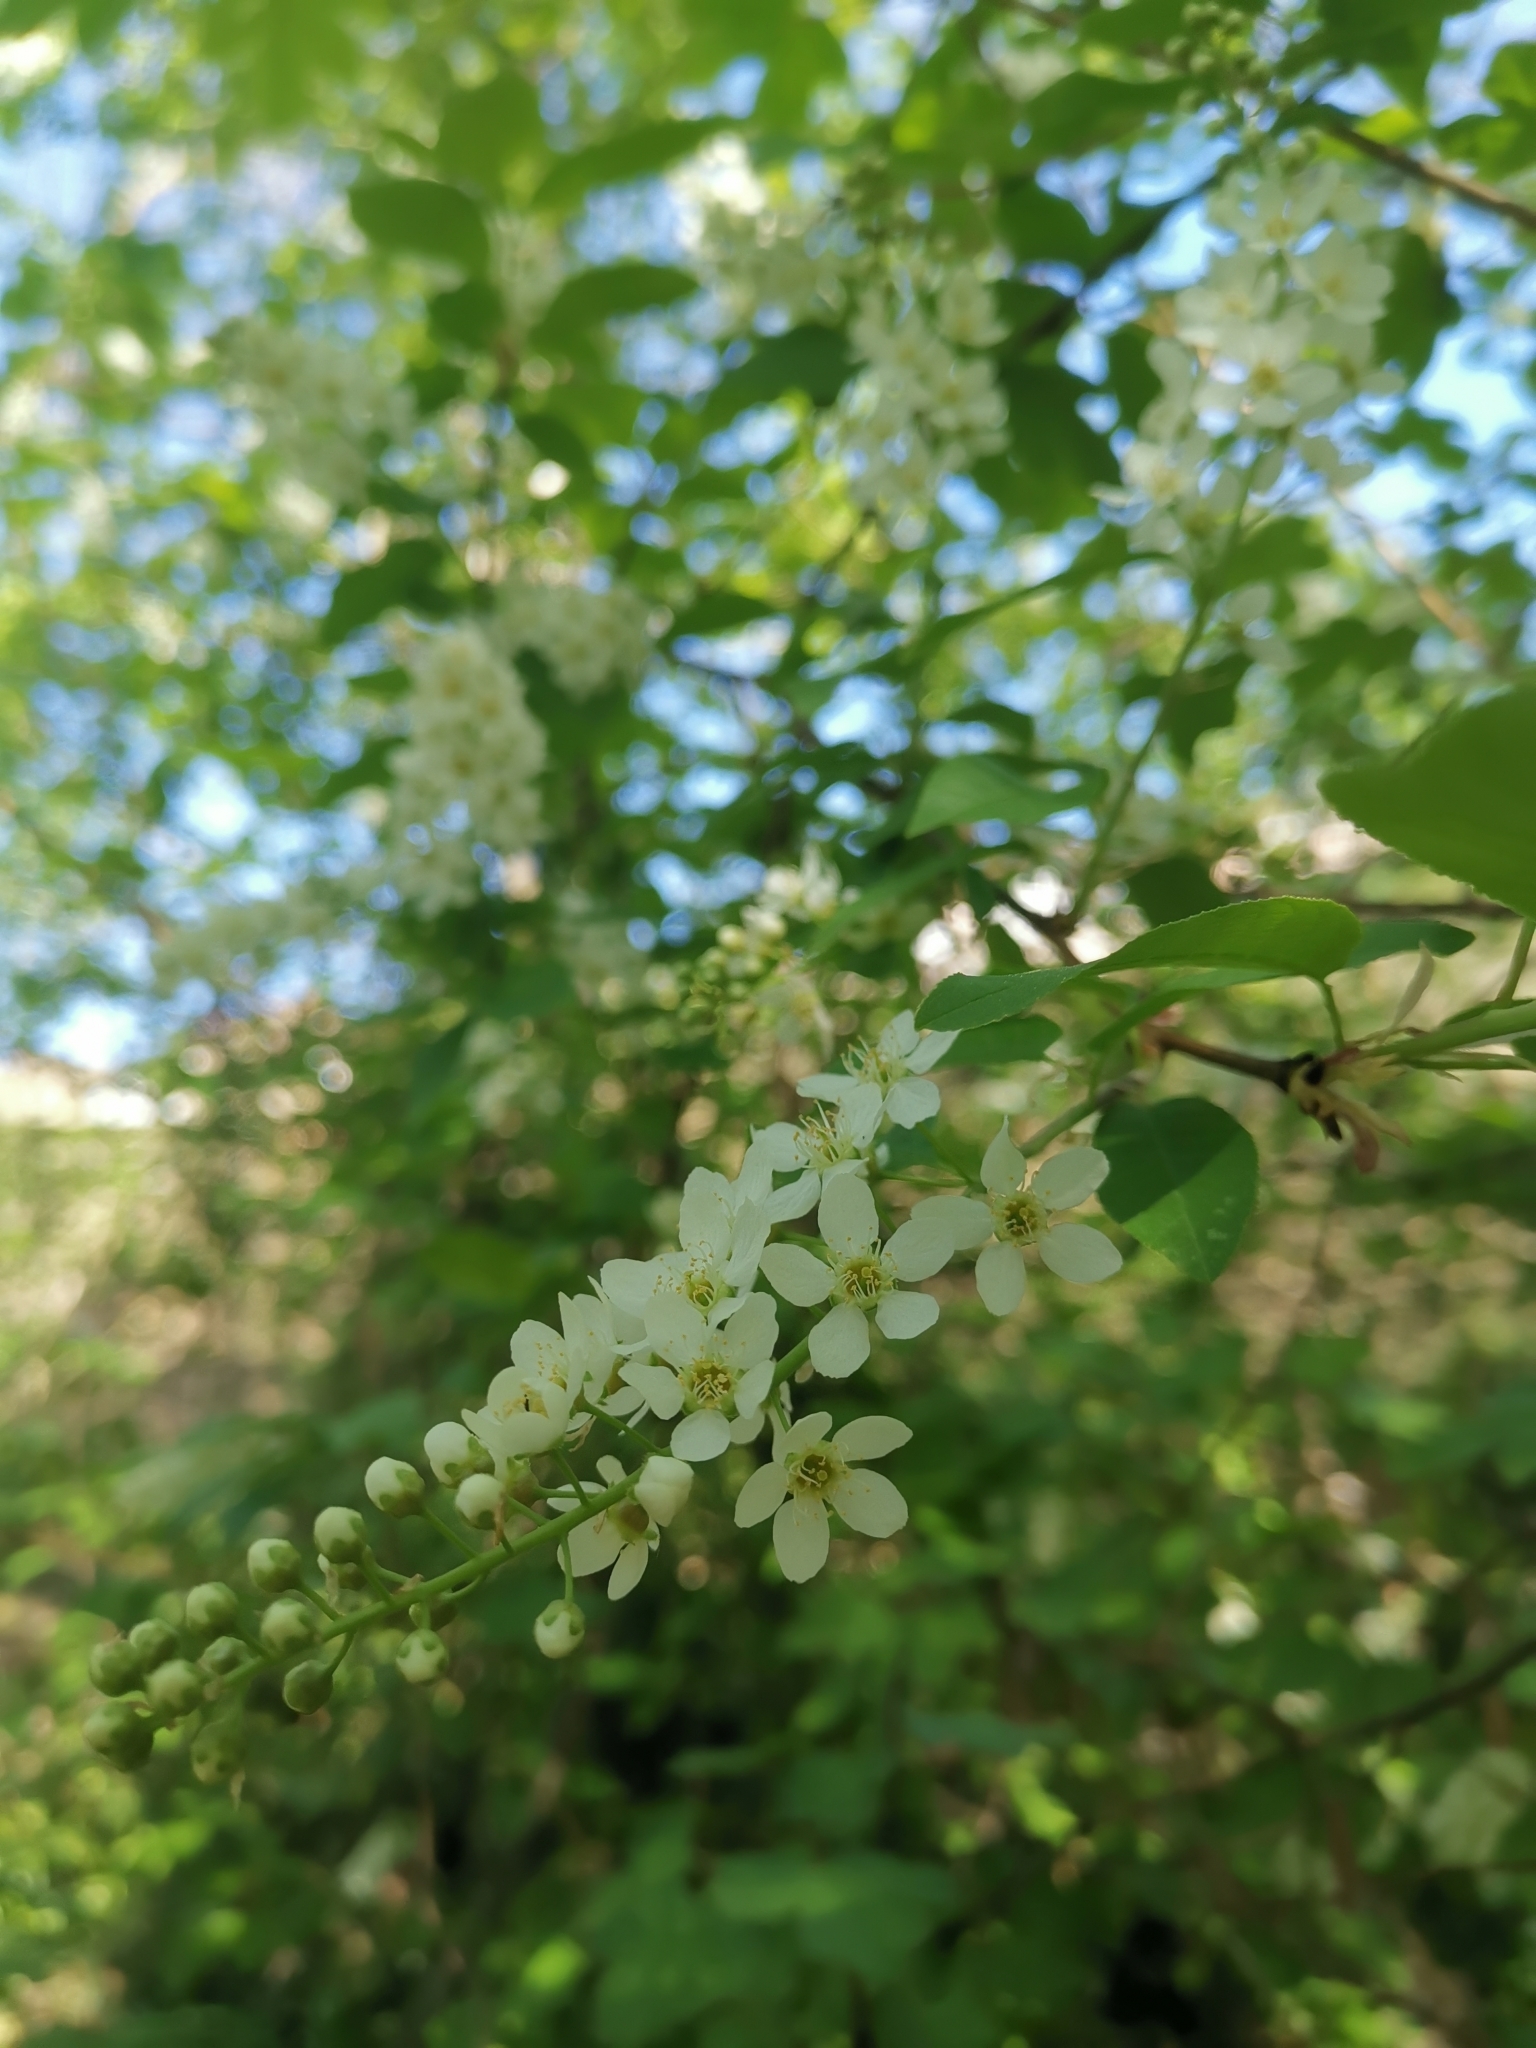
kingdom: Plantae
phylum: Tracheophyta
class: Magnoliopsida
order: Rosales
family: Rosaceae
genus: Prunus
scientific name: Prunus padus
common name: Bird cherry
